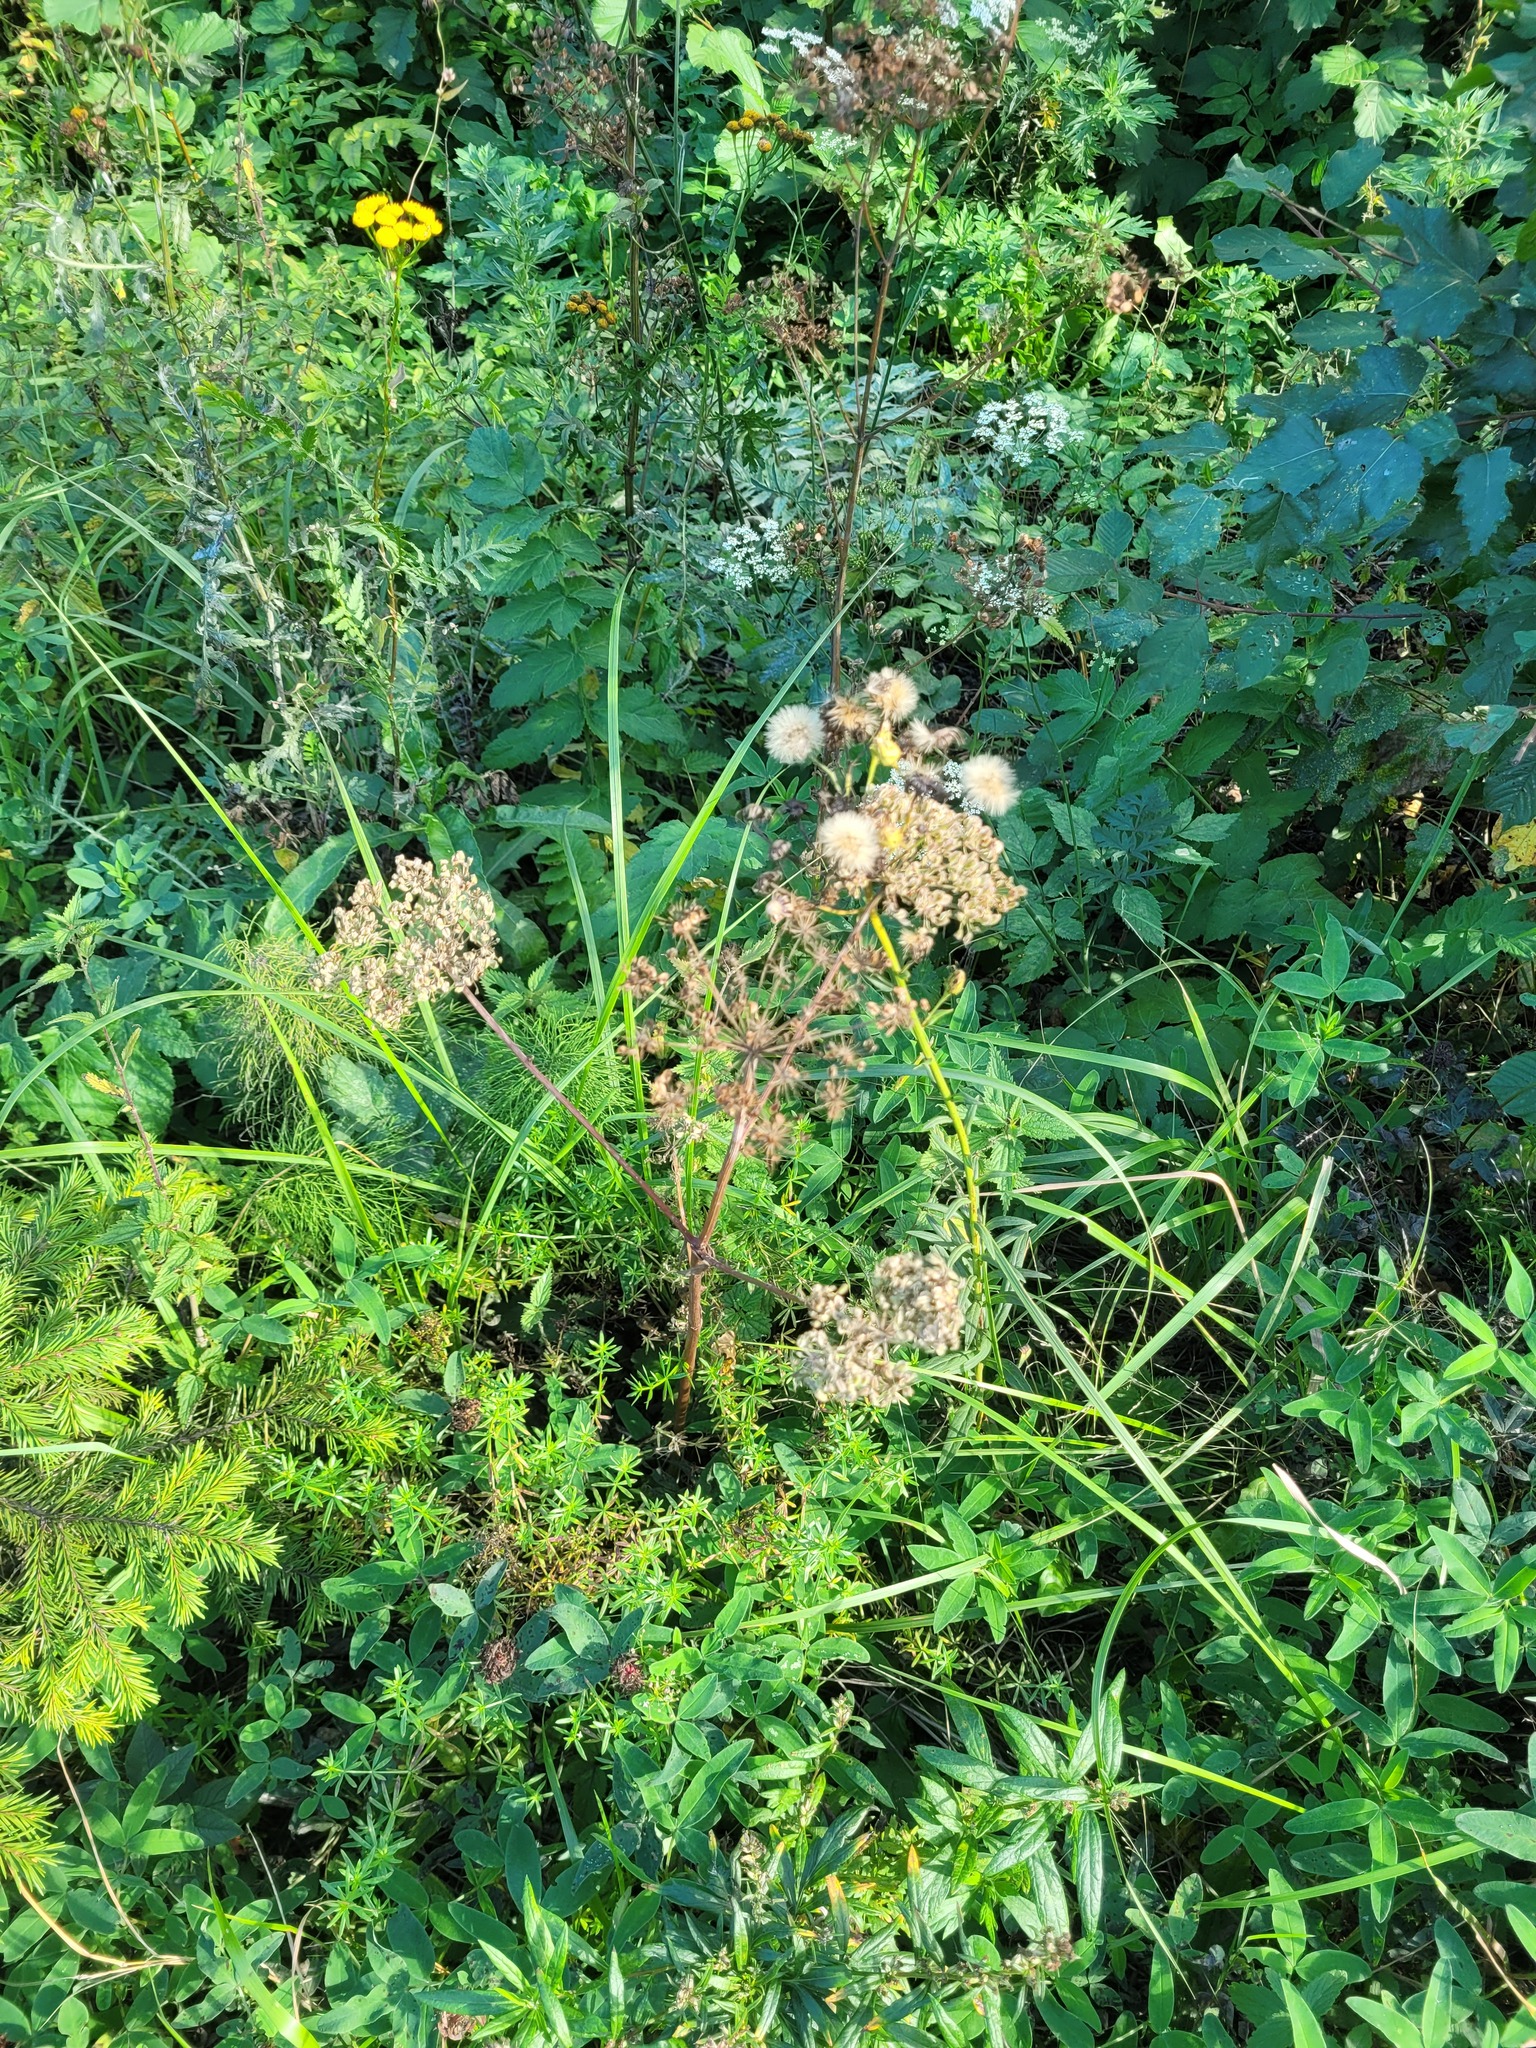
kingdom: Plantae
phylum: Tracheophyta
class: Magnoliopsida
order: Apiales
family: Apiaceae
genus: Angelica
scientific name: Angelica sylvestris
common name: Wild angelica
